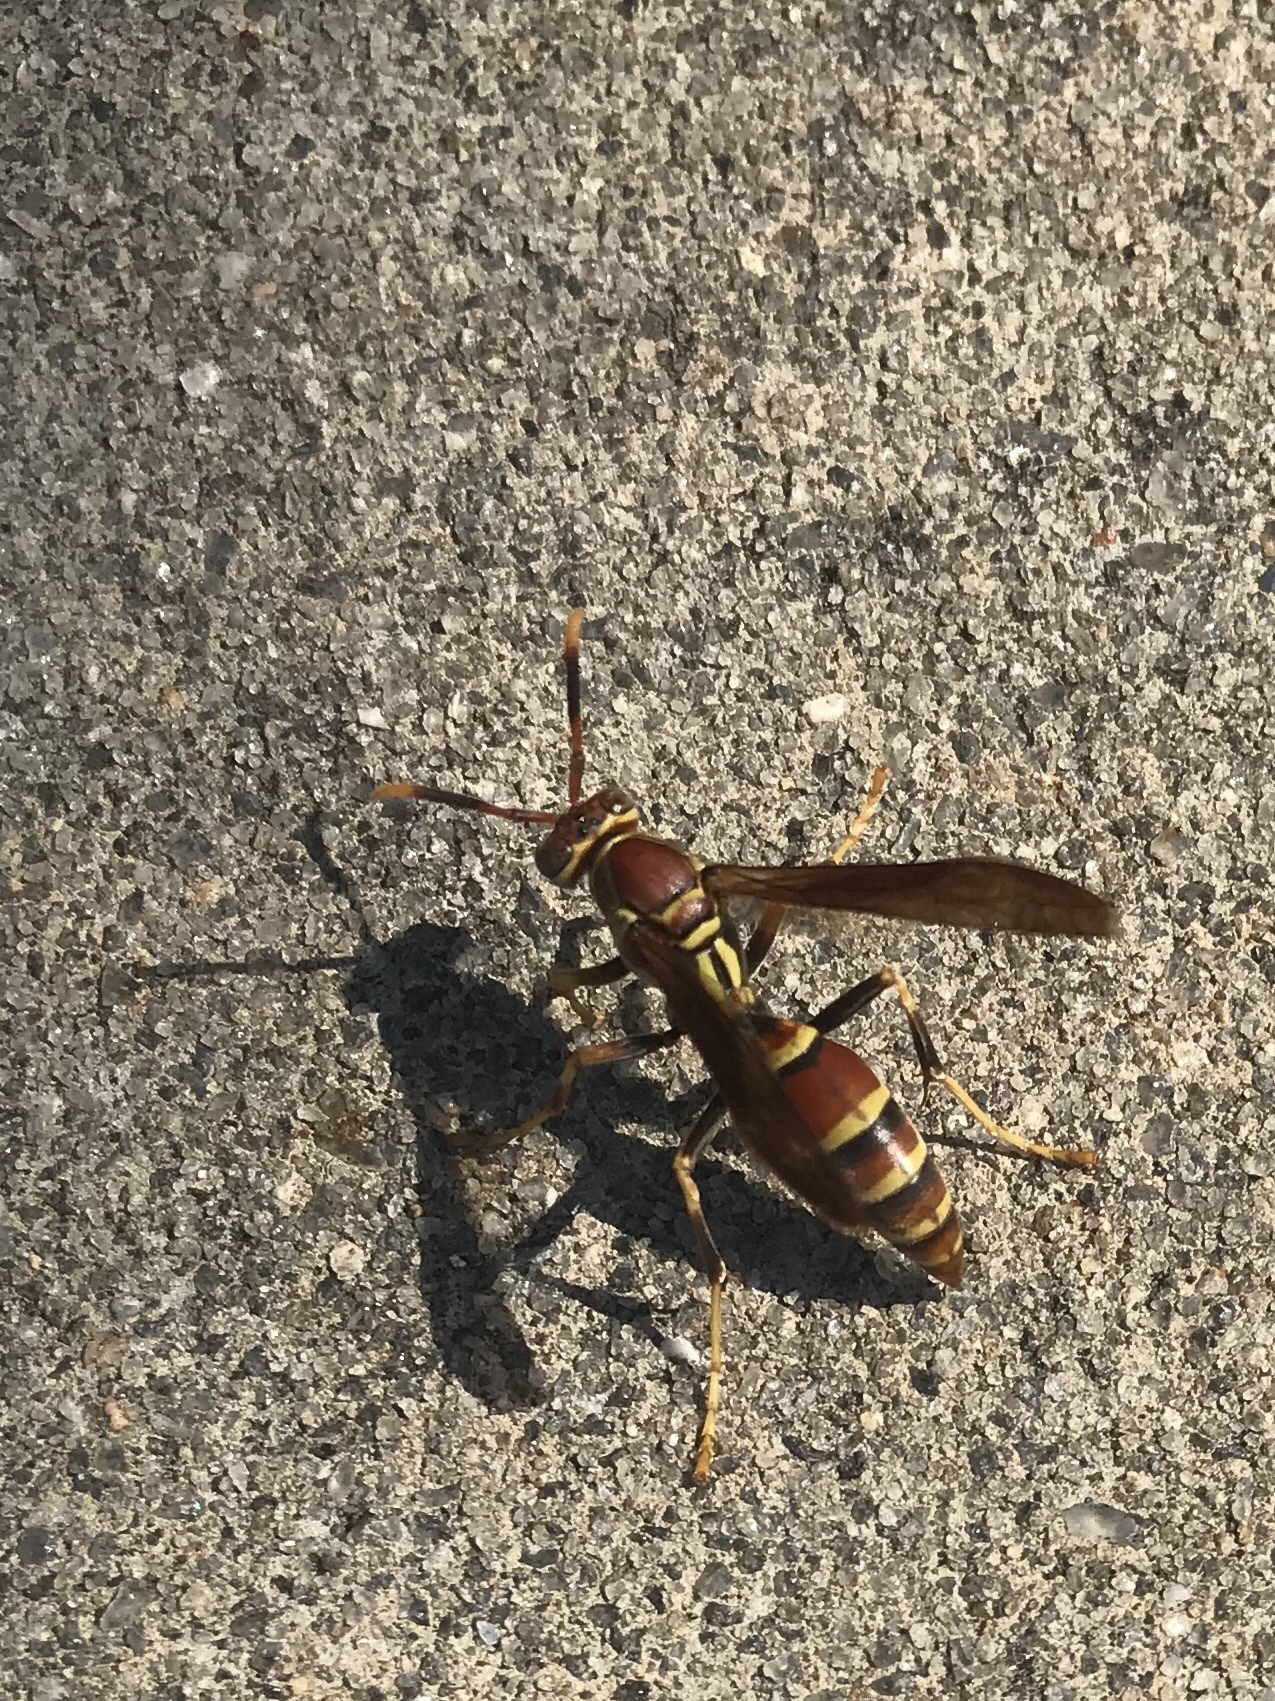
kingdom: Animalia
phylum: Arthropoda
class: Insecta
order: Hymenoptera
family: Eumenidae
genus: Polistes
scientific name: Polistes exclamans
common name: Paper wasp
